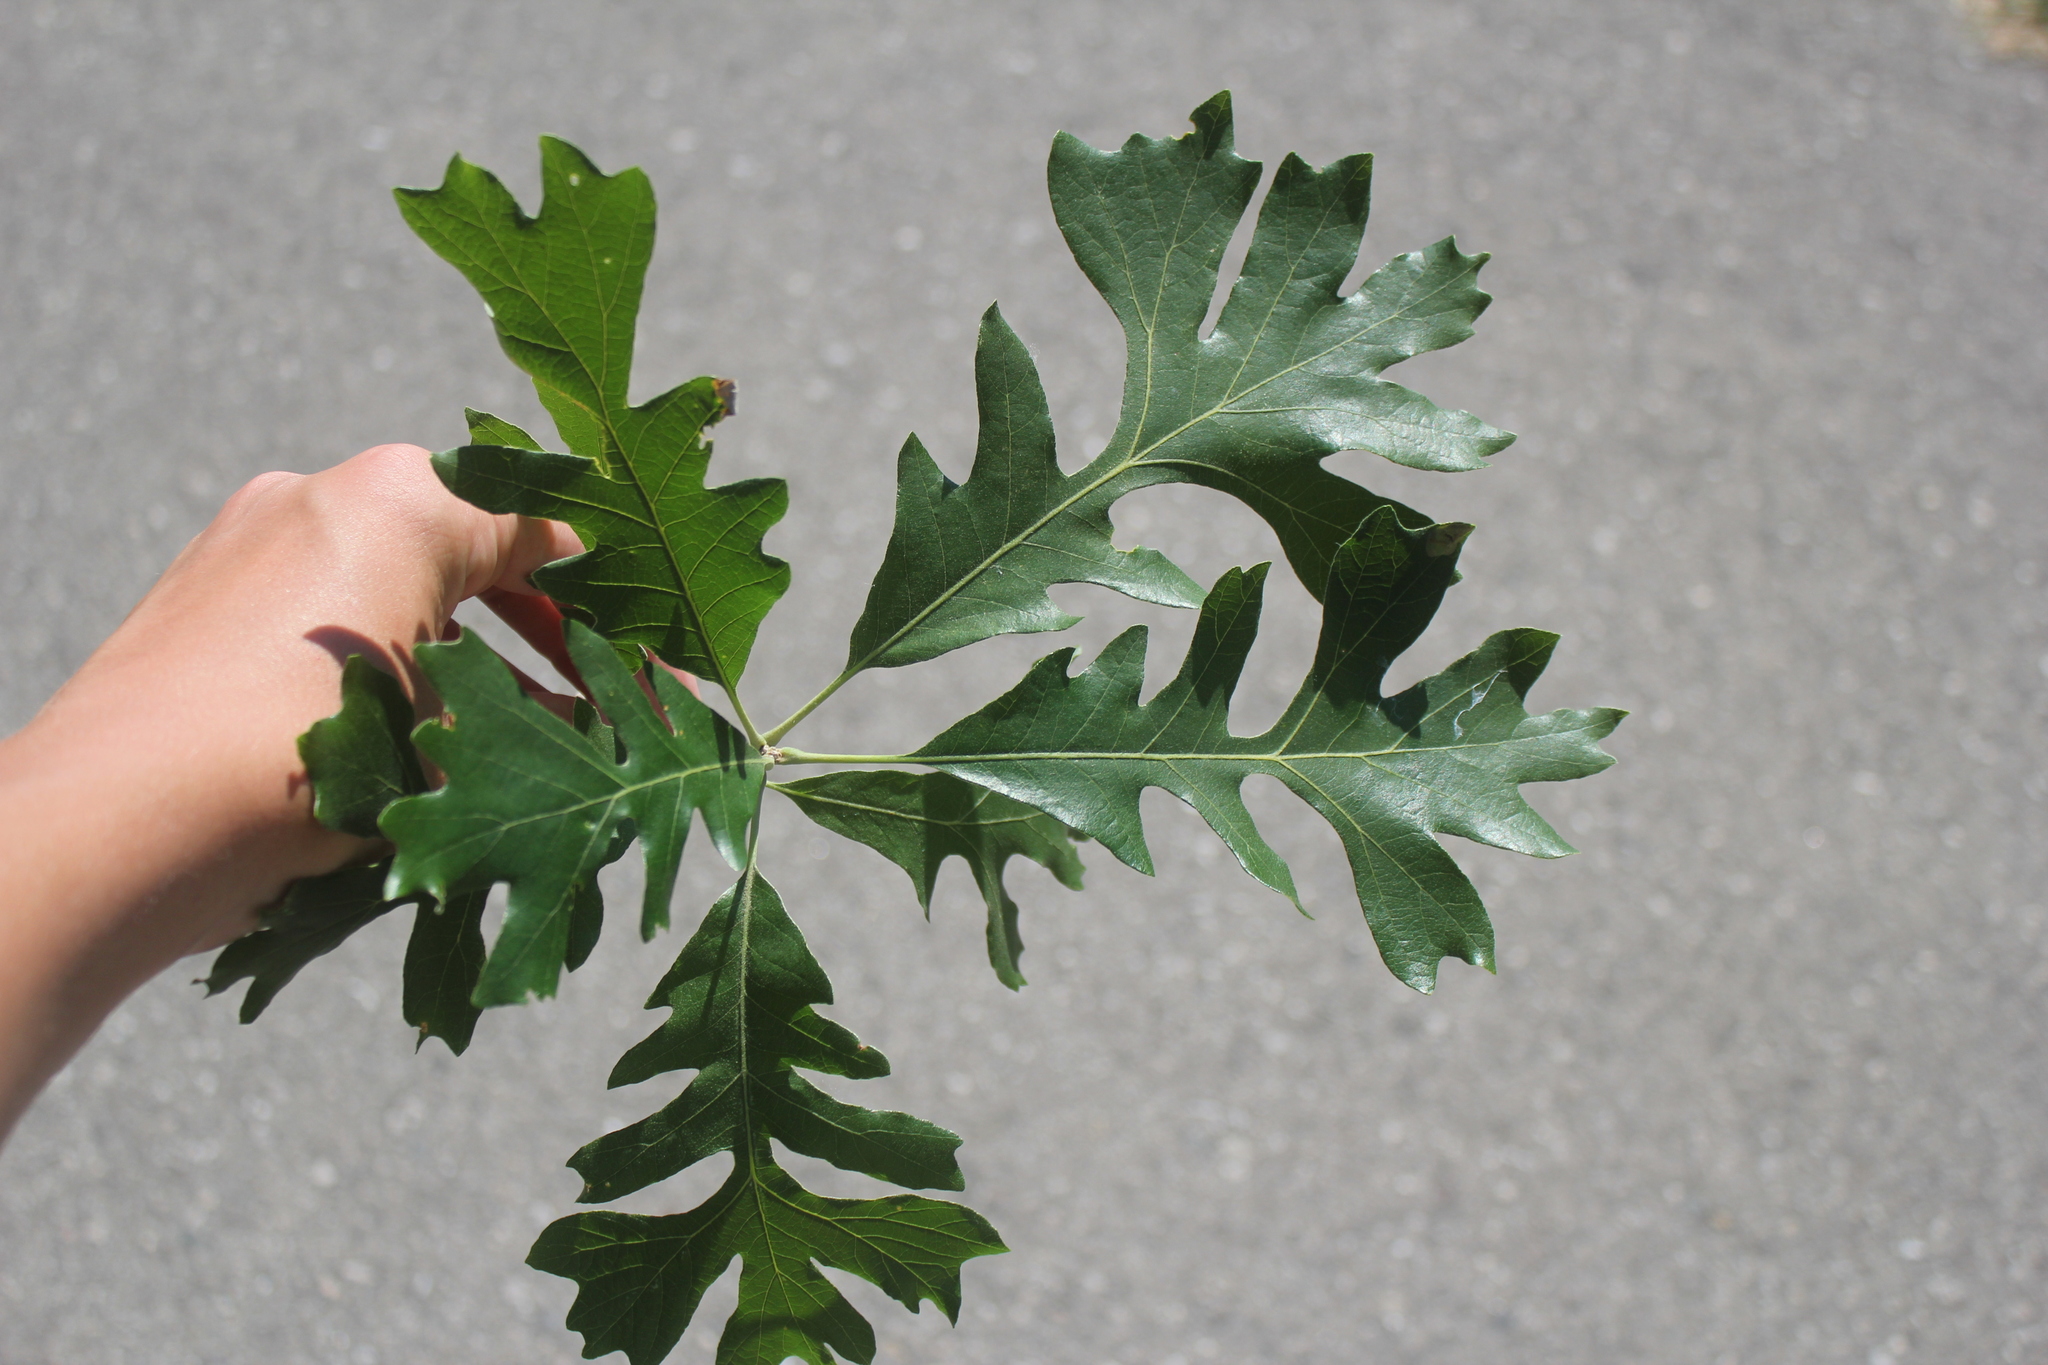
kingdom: Plantae
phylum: Tracheophyta
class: Magnoliopsida
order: Fagales
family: Fagaceae
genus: Quercus
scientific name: Quercus macrocarpa
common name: Bur oak
